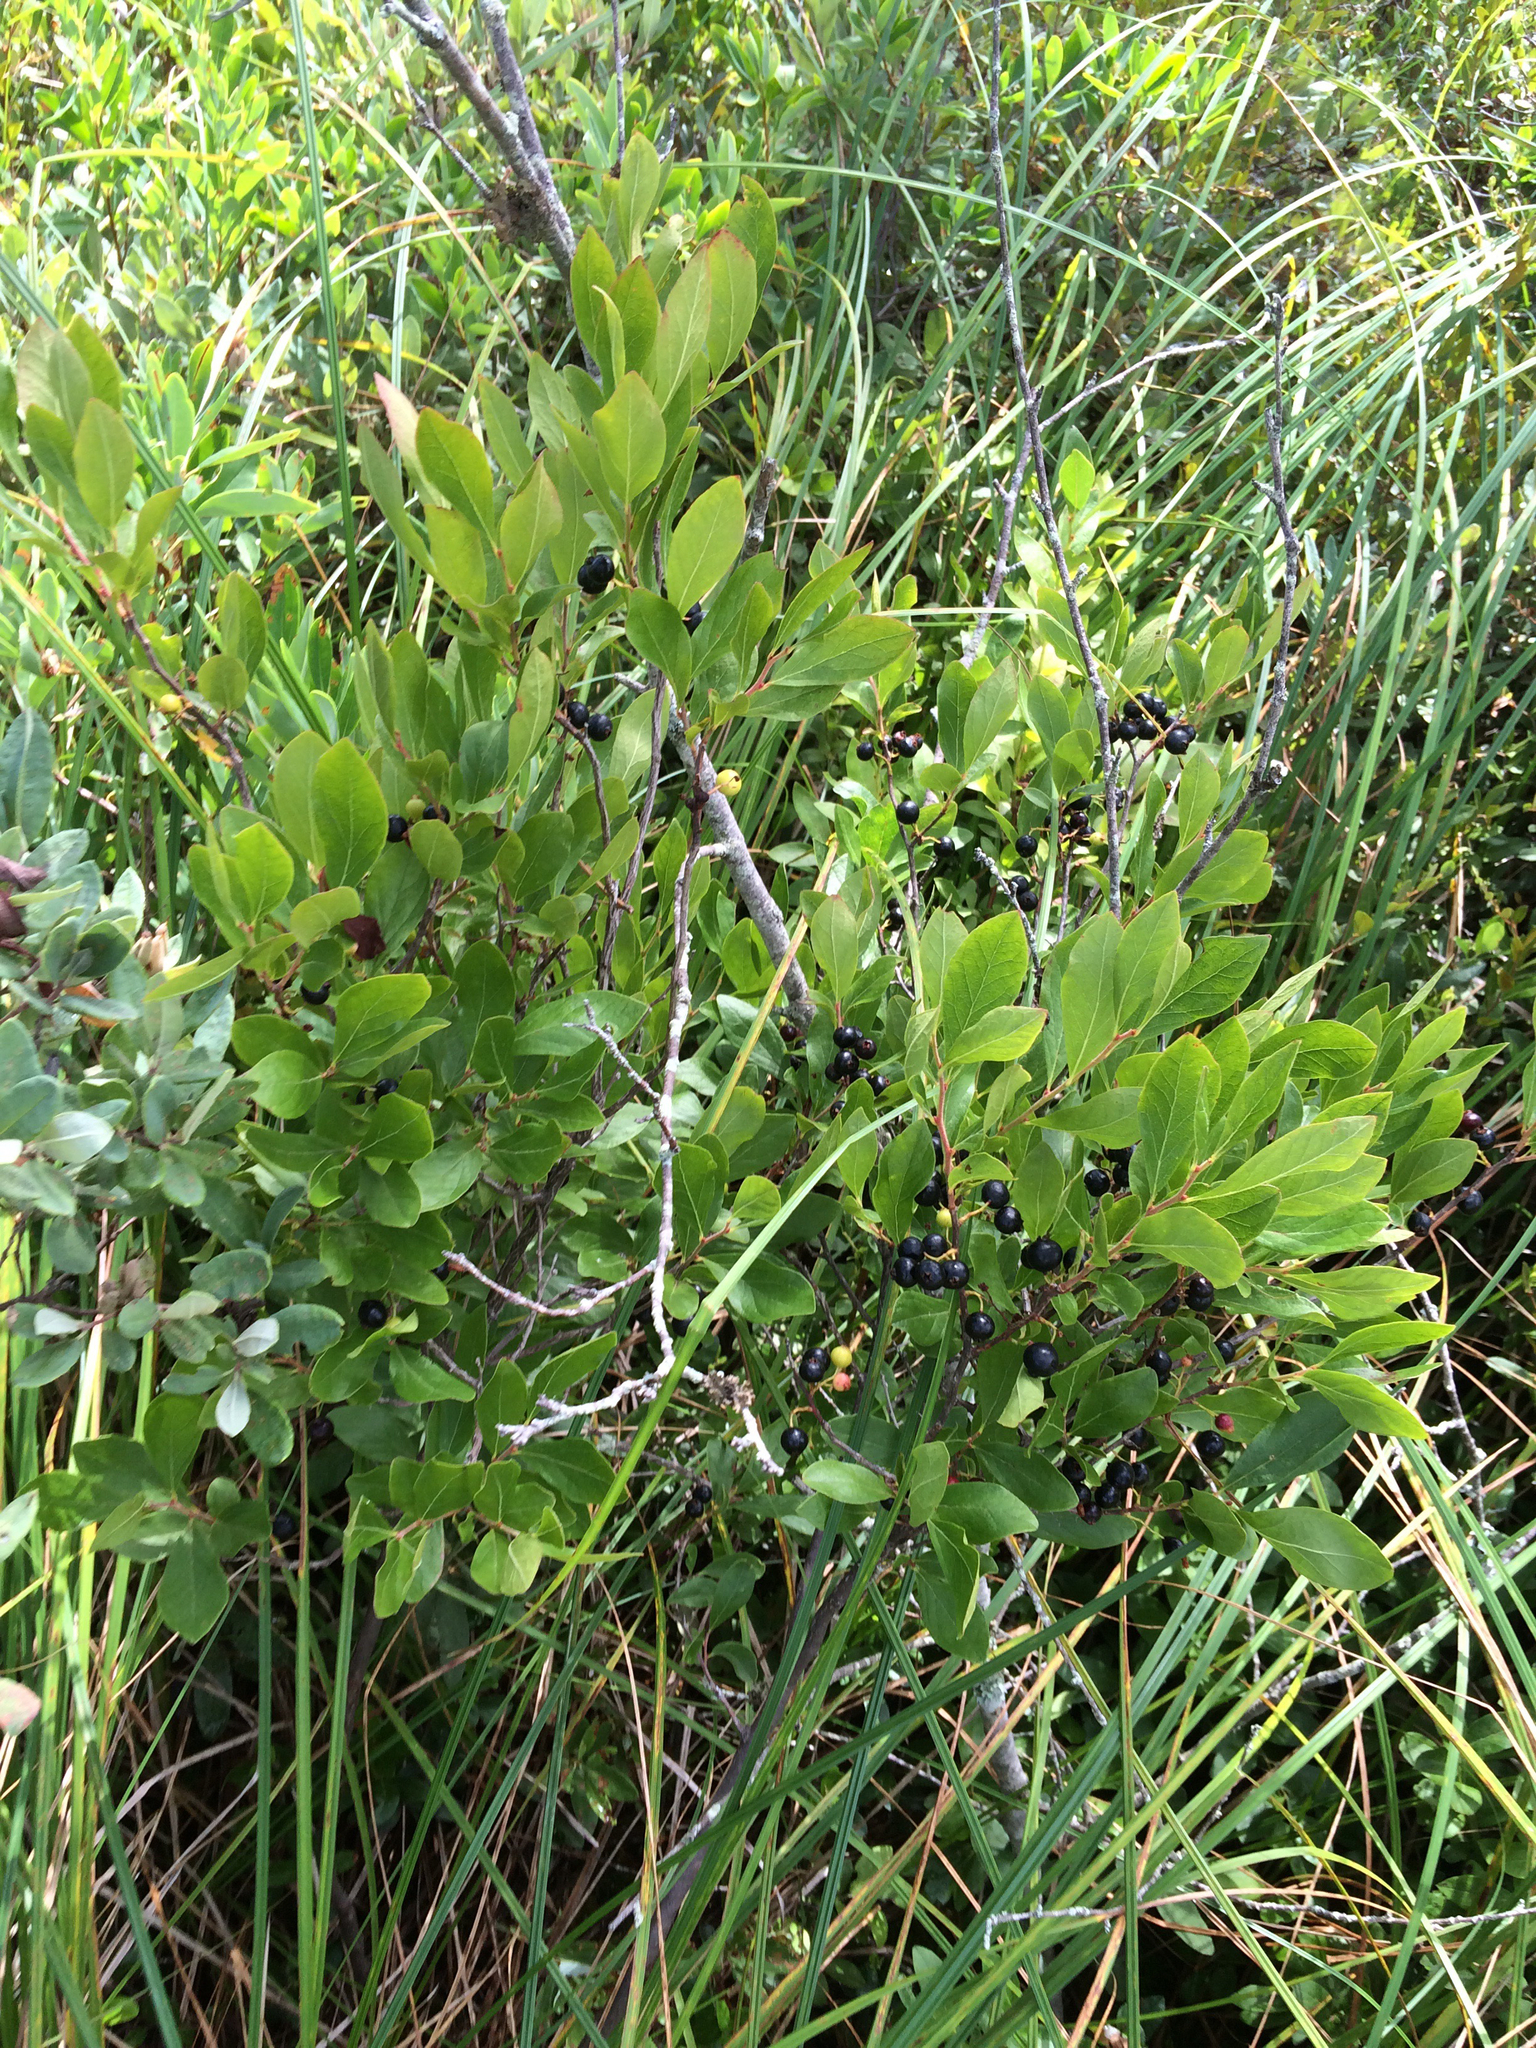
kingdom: Plantae
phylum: Tracheophyta
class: Magnoliopsida
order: Ericales
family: Ericaceae
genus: Gaylussacia
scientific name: Gaylussacia baccata
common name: Black huckleberry
